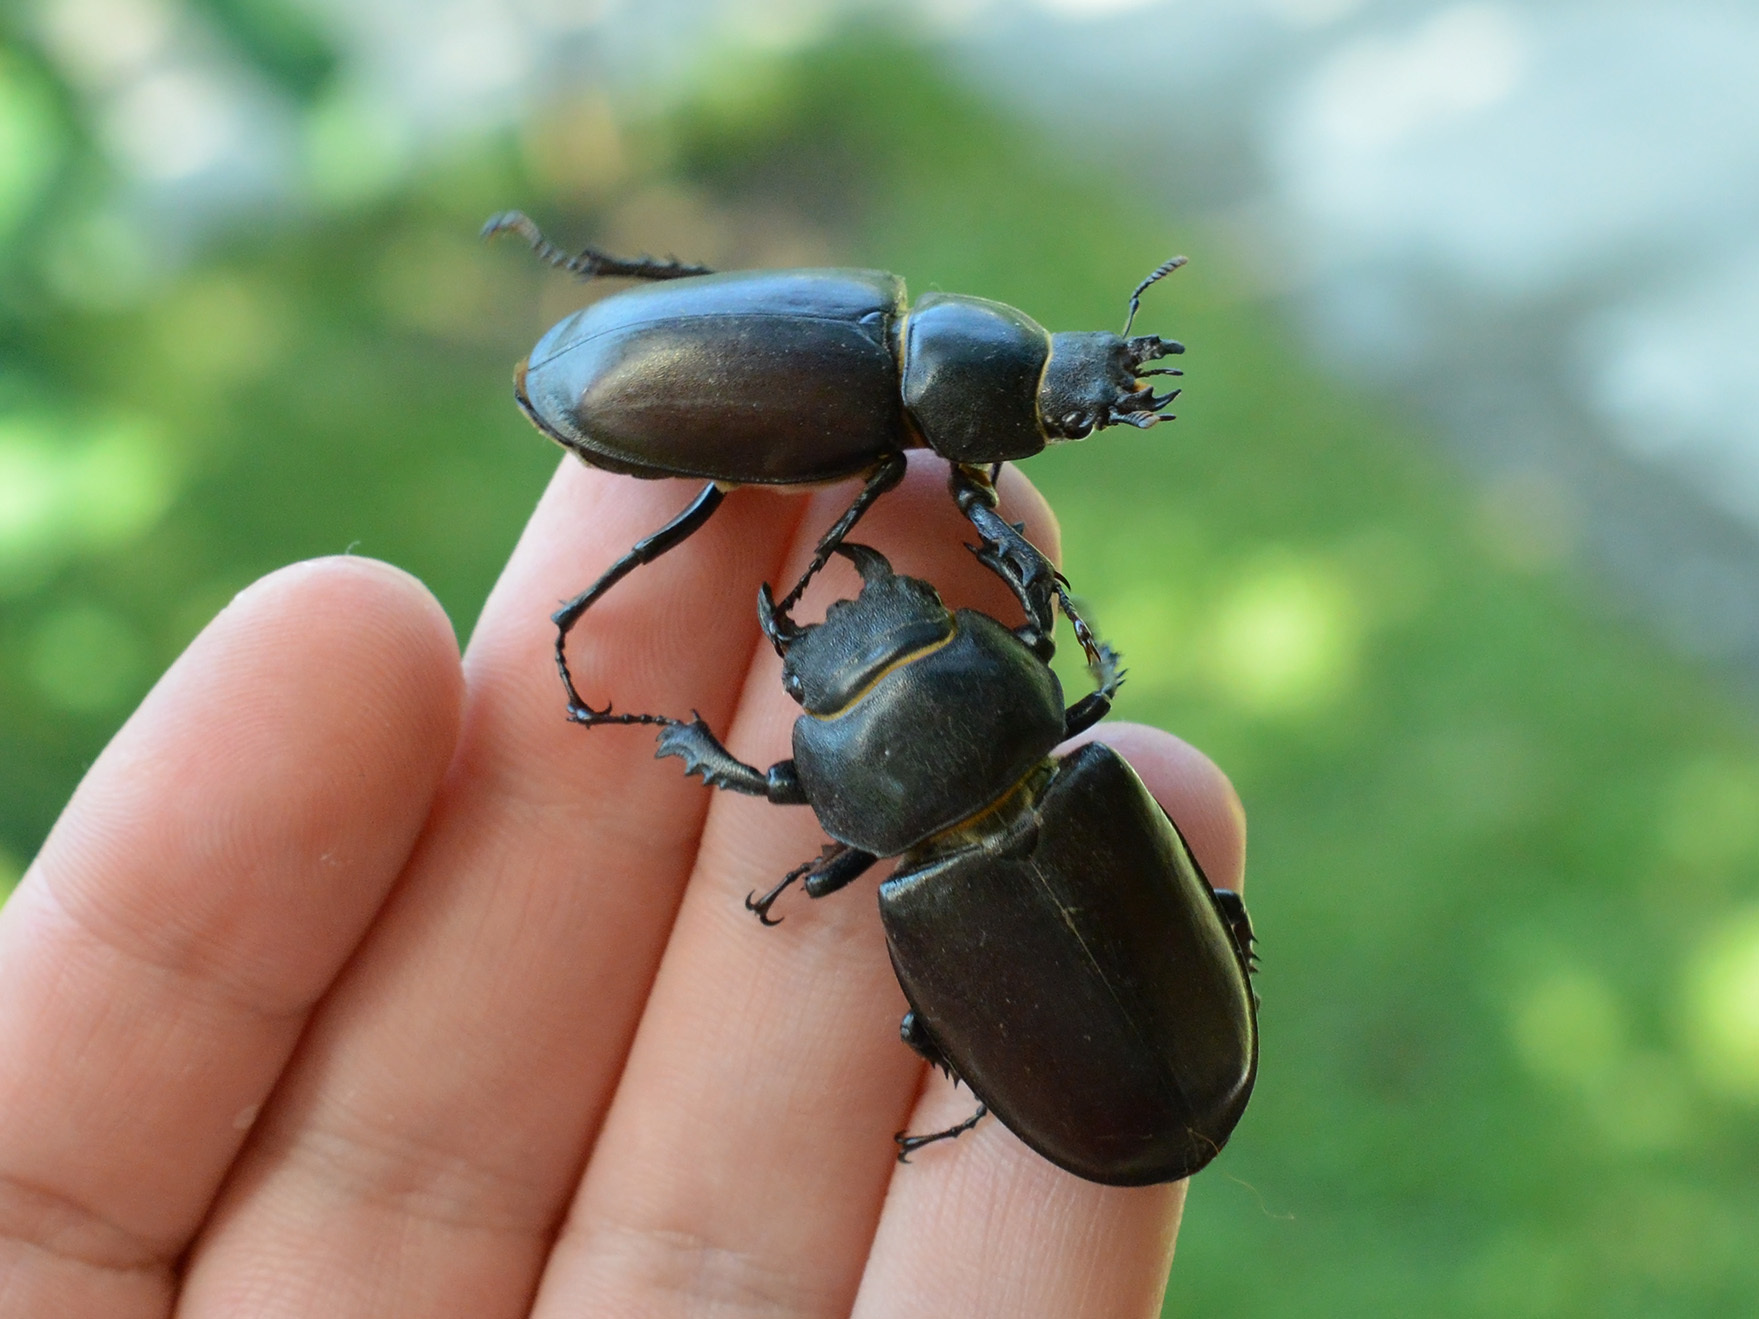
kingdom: Animalia
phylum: Arthropoda
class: Insecta
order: Coleoptera
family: Lucanidae
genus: Lucanus
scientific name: Lucanus cervus
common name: Stag beetle
